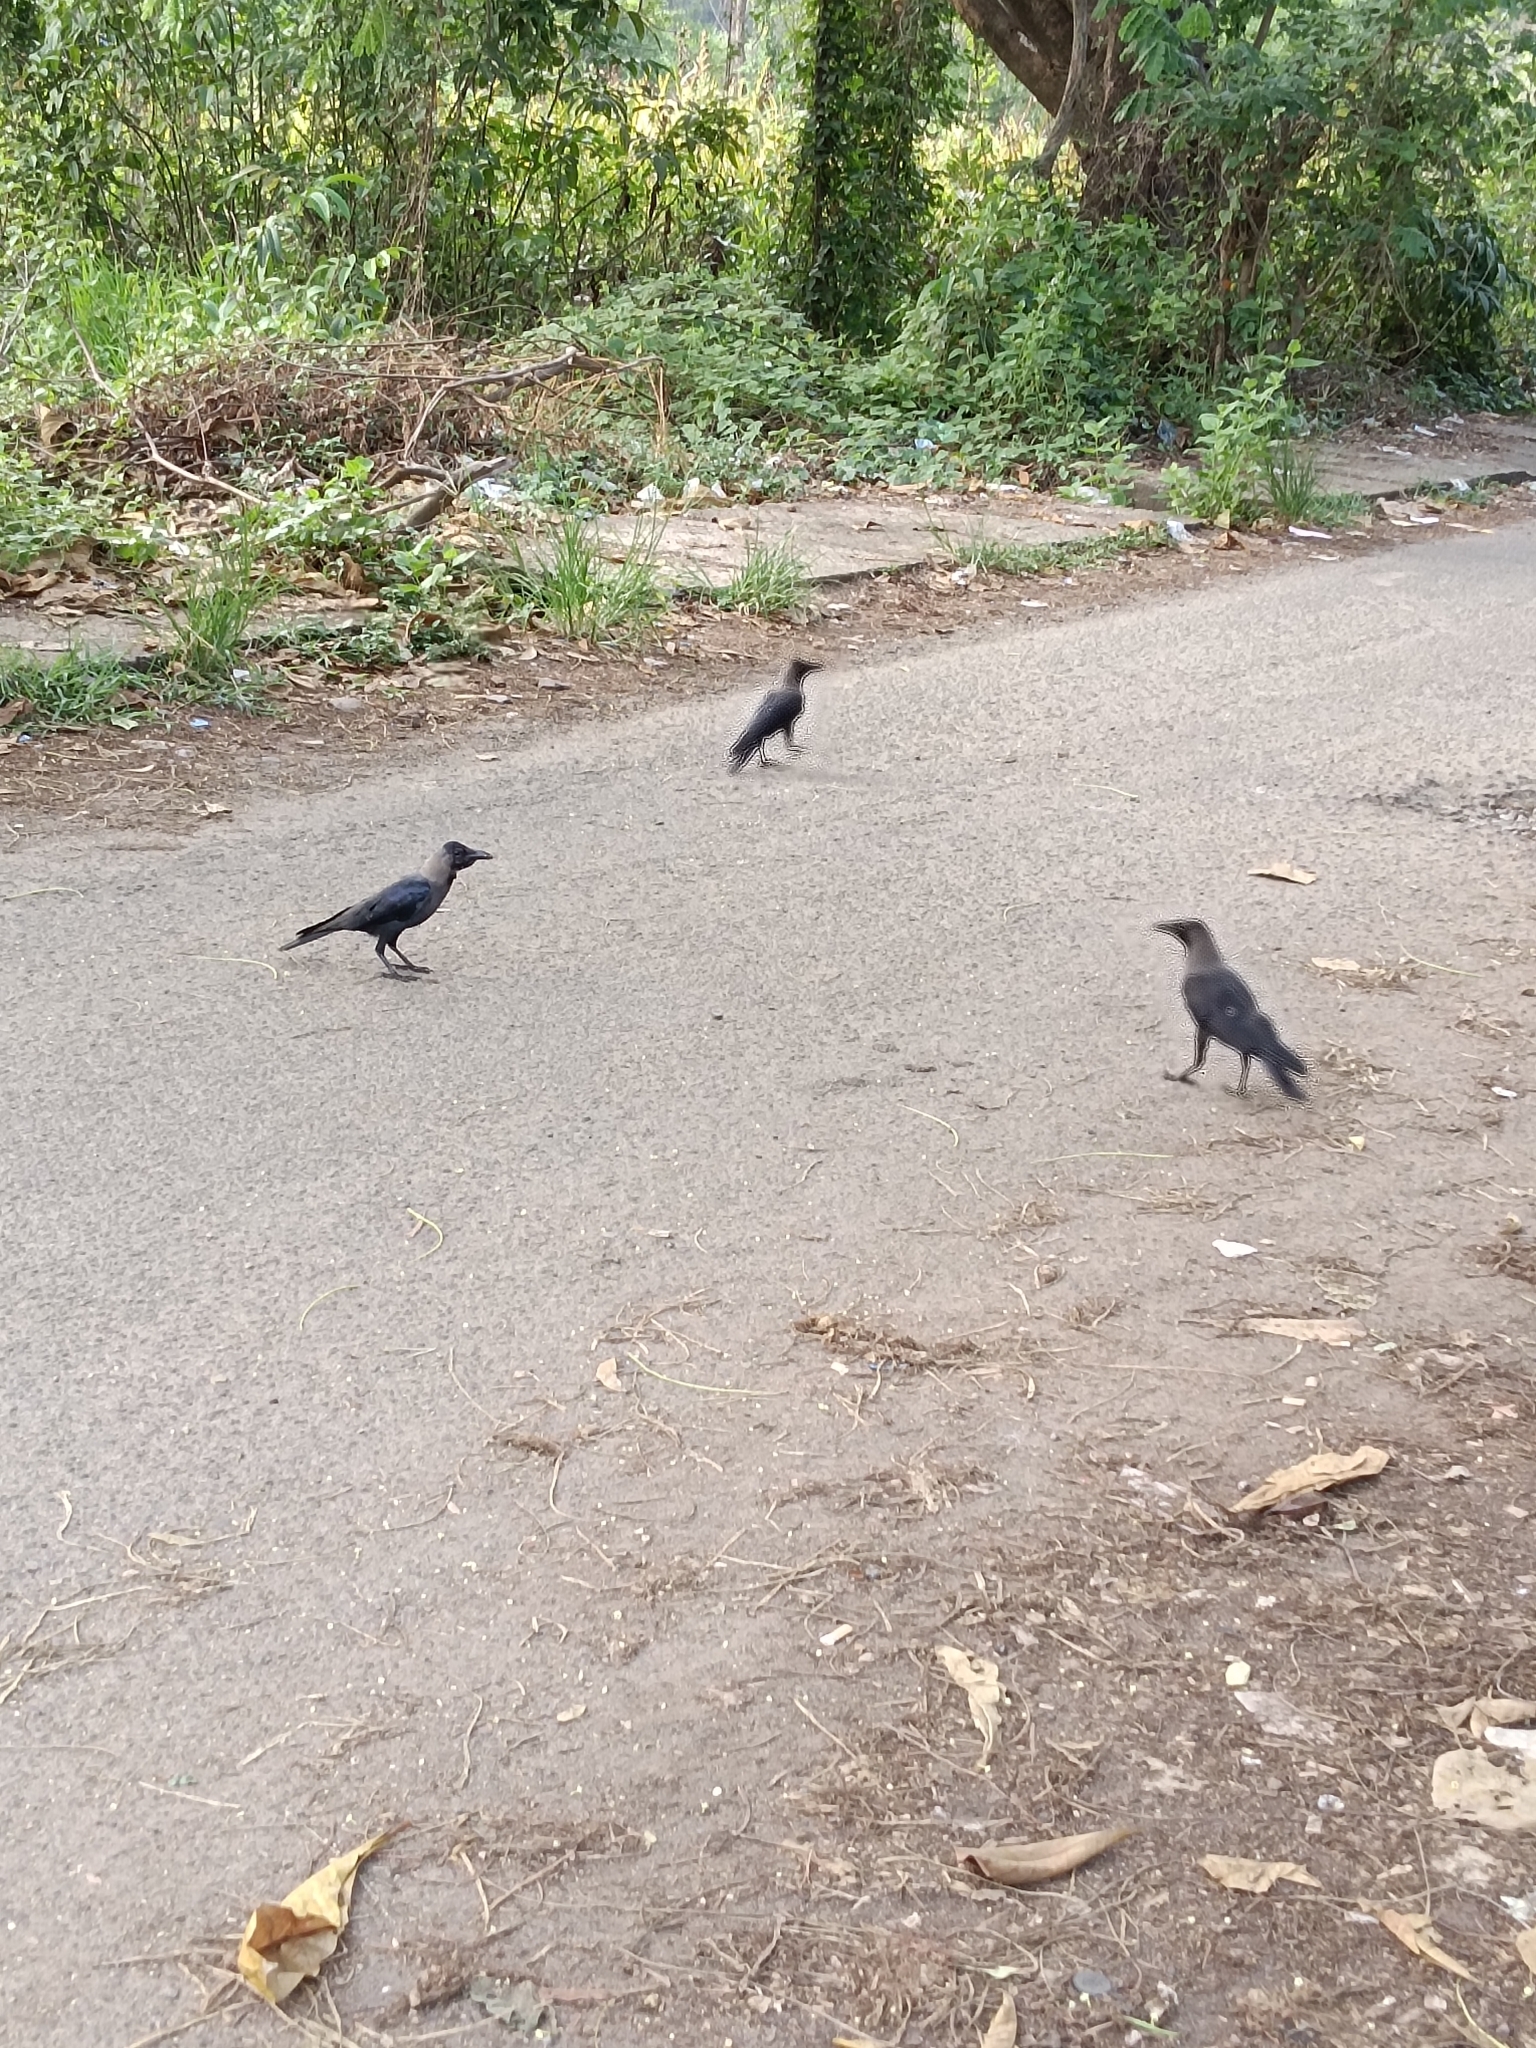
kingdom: Animalia
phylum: Chordata
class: Aves
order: Passeriformes
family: Corvidae
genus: Corvus
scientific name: Corvus splendens
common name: House crow
